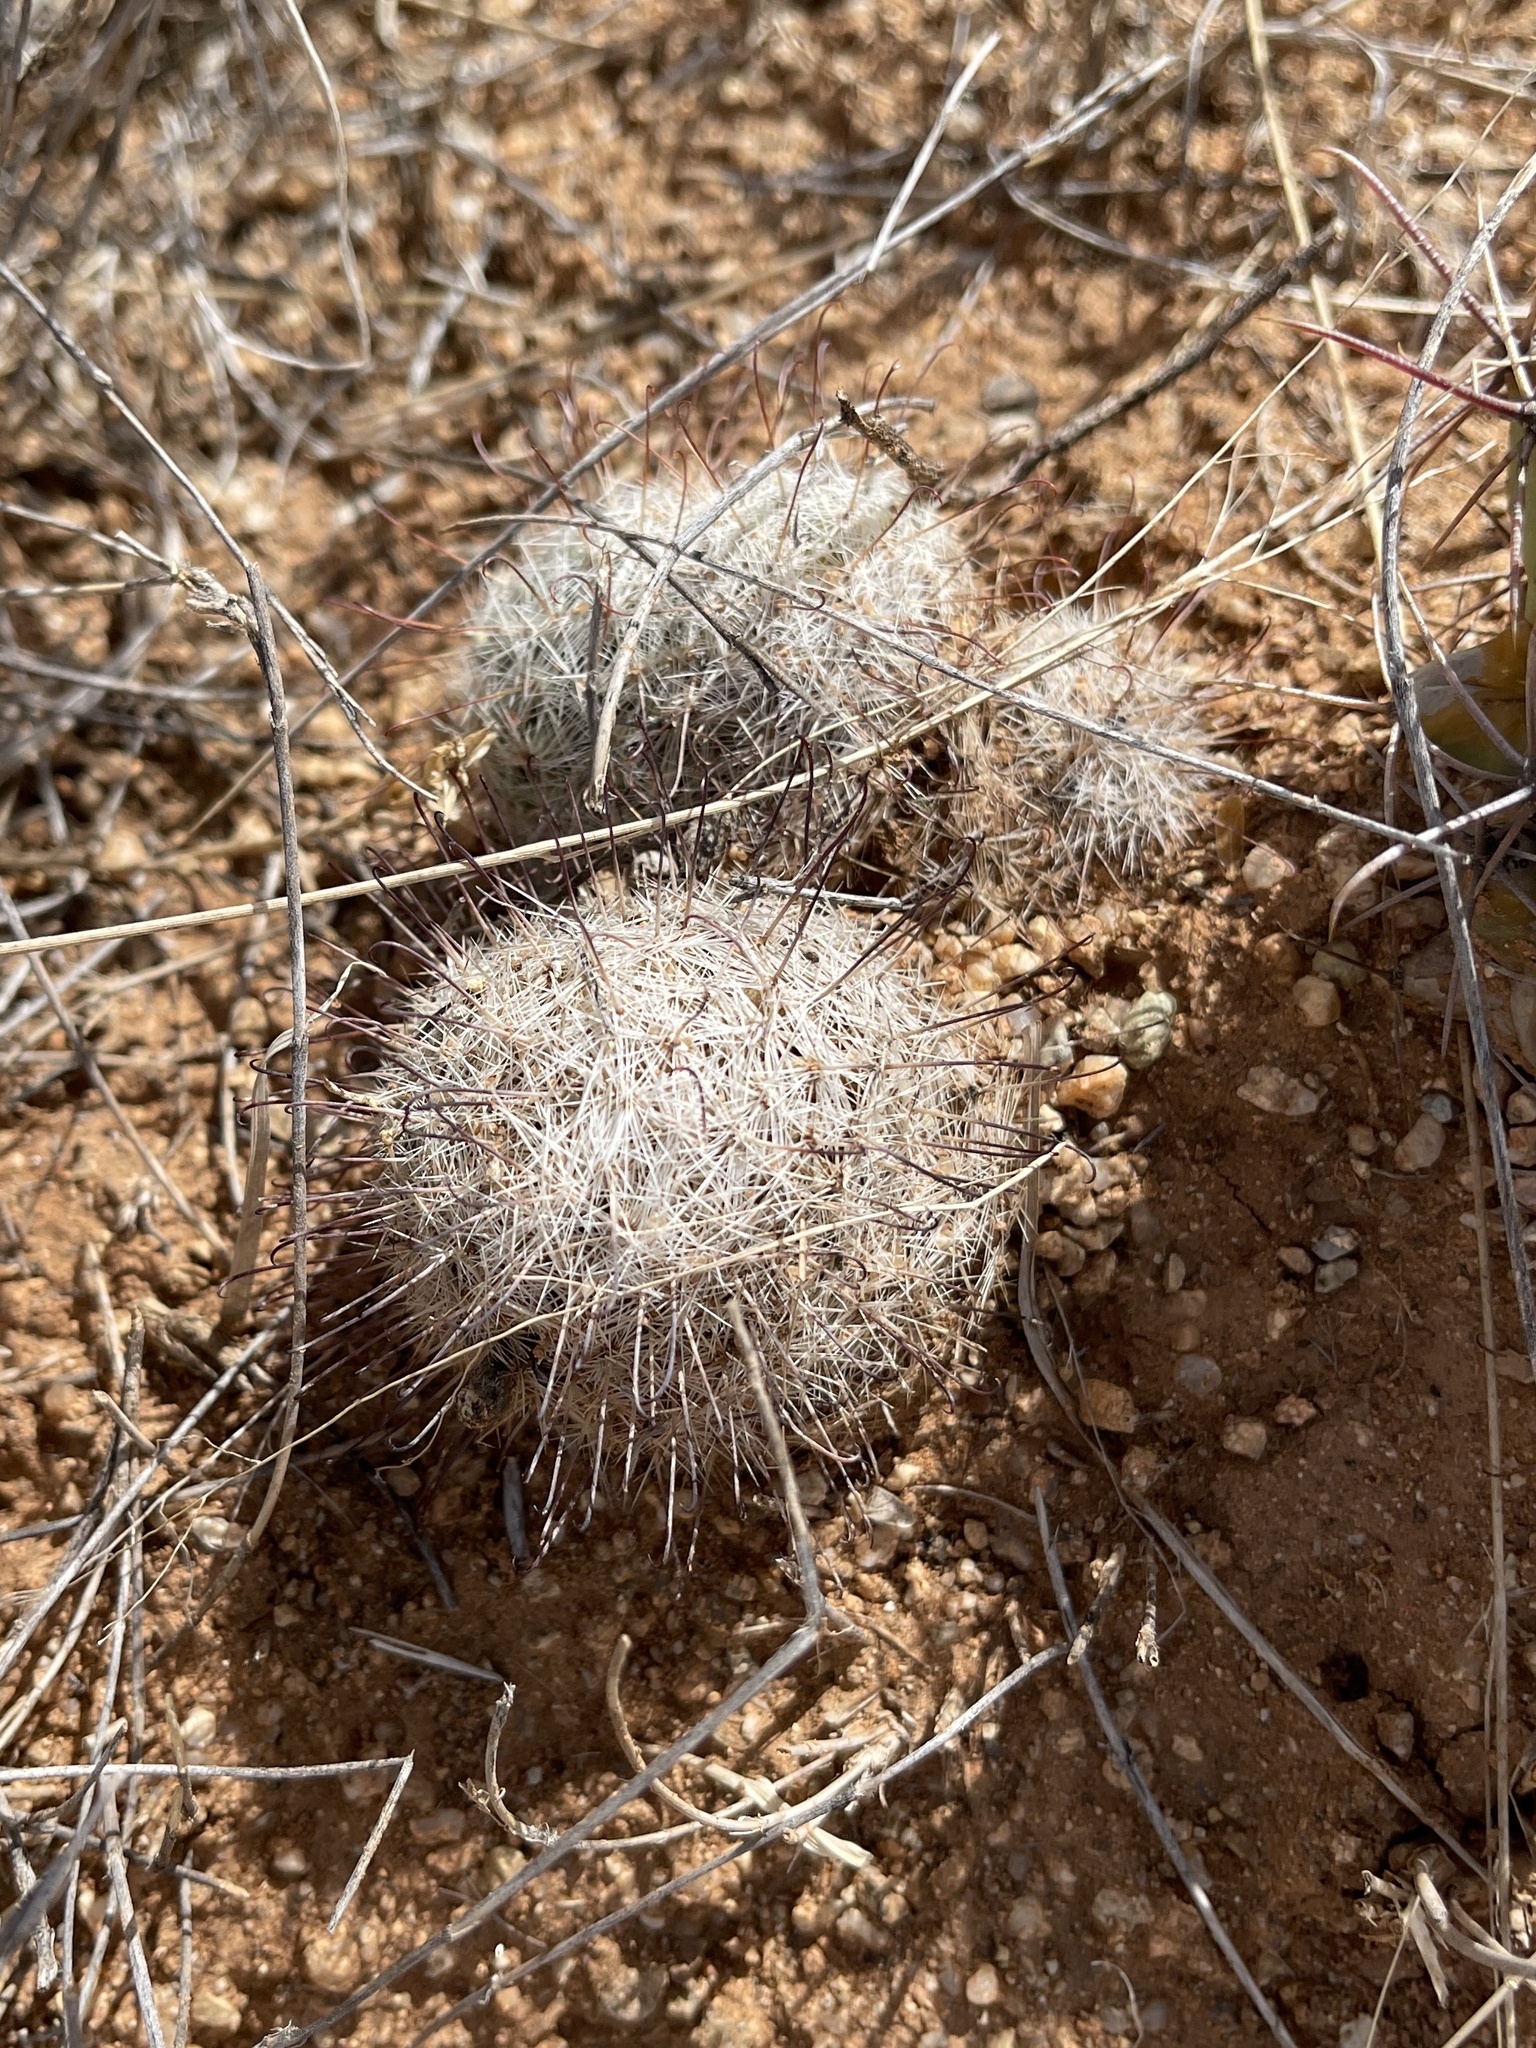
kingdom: Plantae
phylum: Tracheophyta
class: Magnoliopsida
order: Caryophyllales
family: Cactaceae
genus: Cochemiea
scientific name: Cochemiea grahamii
